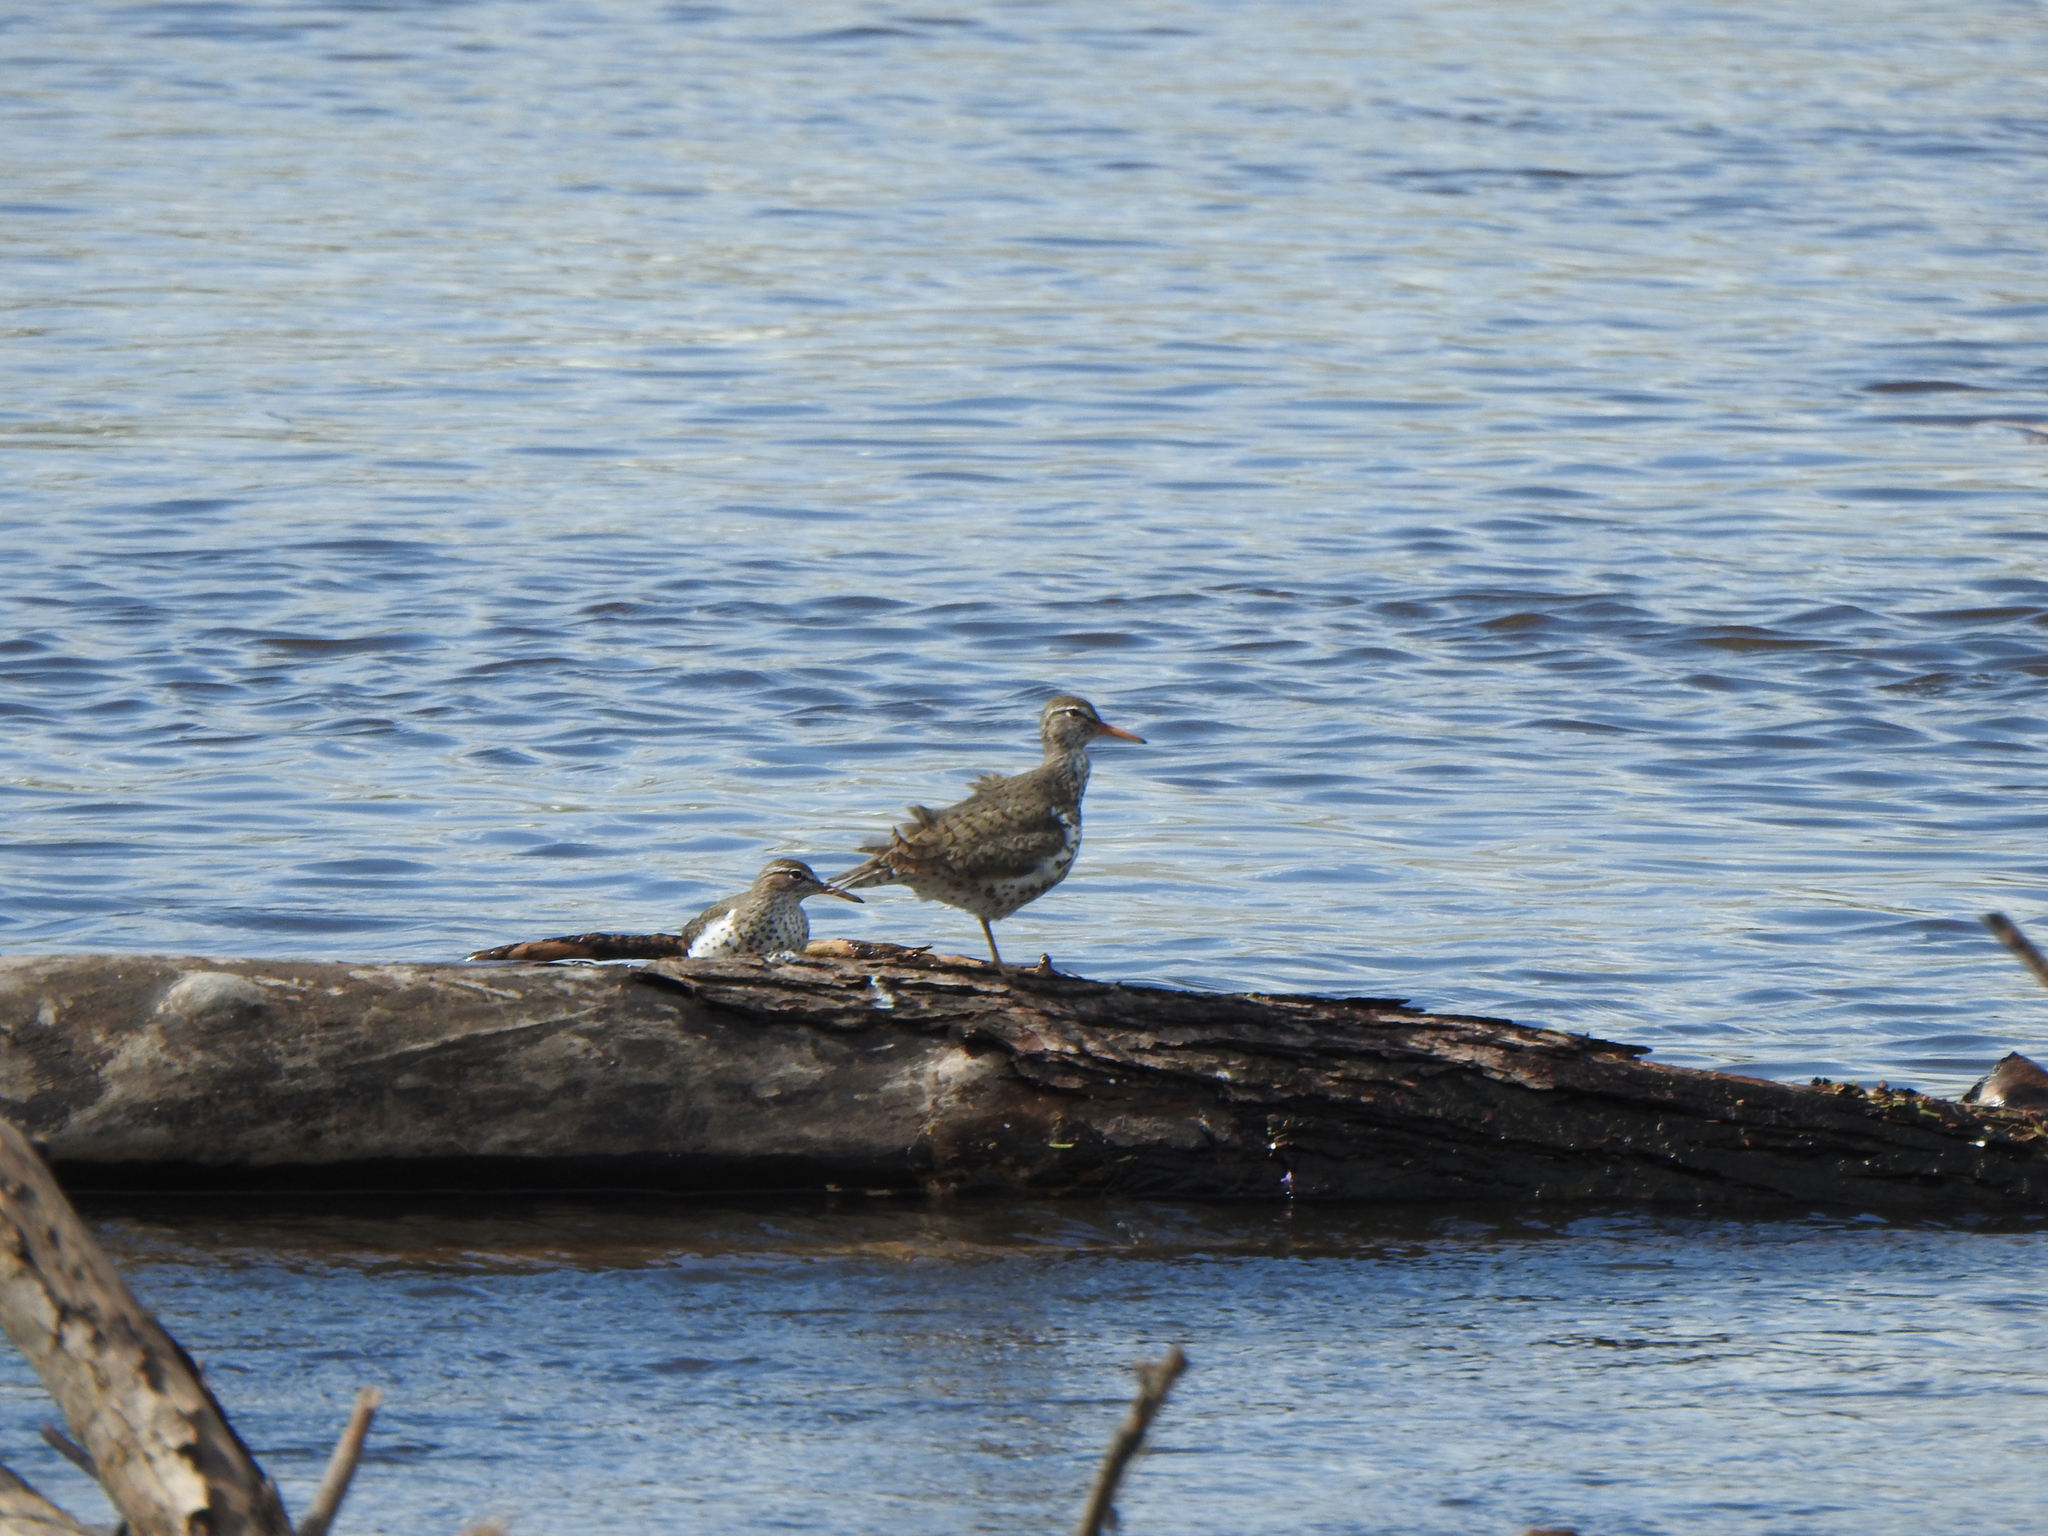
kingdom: Animalia
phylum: Chordata
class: Aves
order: Charadriiformes
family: Scolopacidae
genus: Actitis
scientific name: Actitis macularius
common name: Spotted sandpiper
